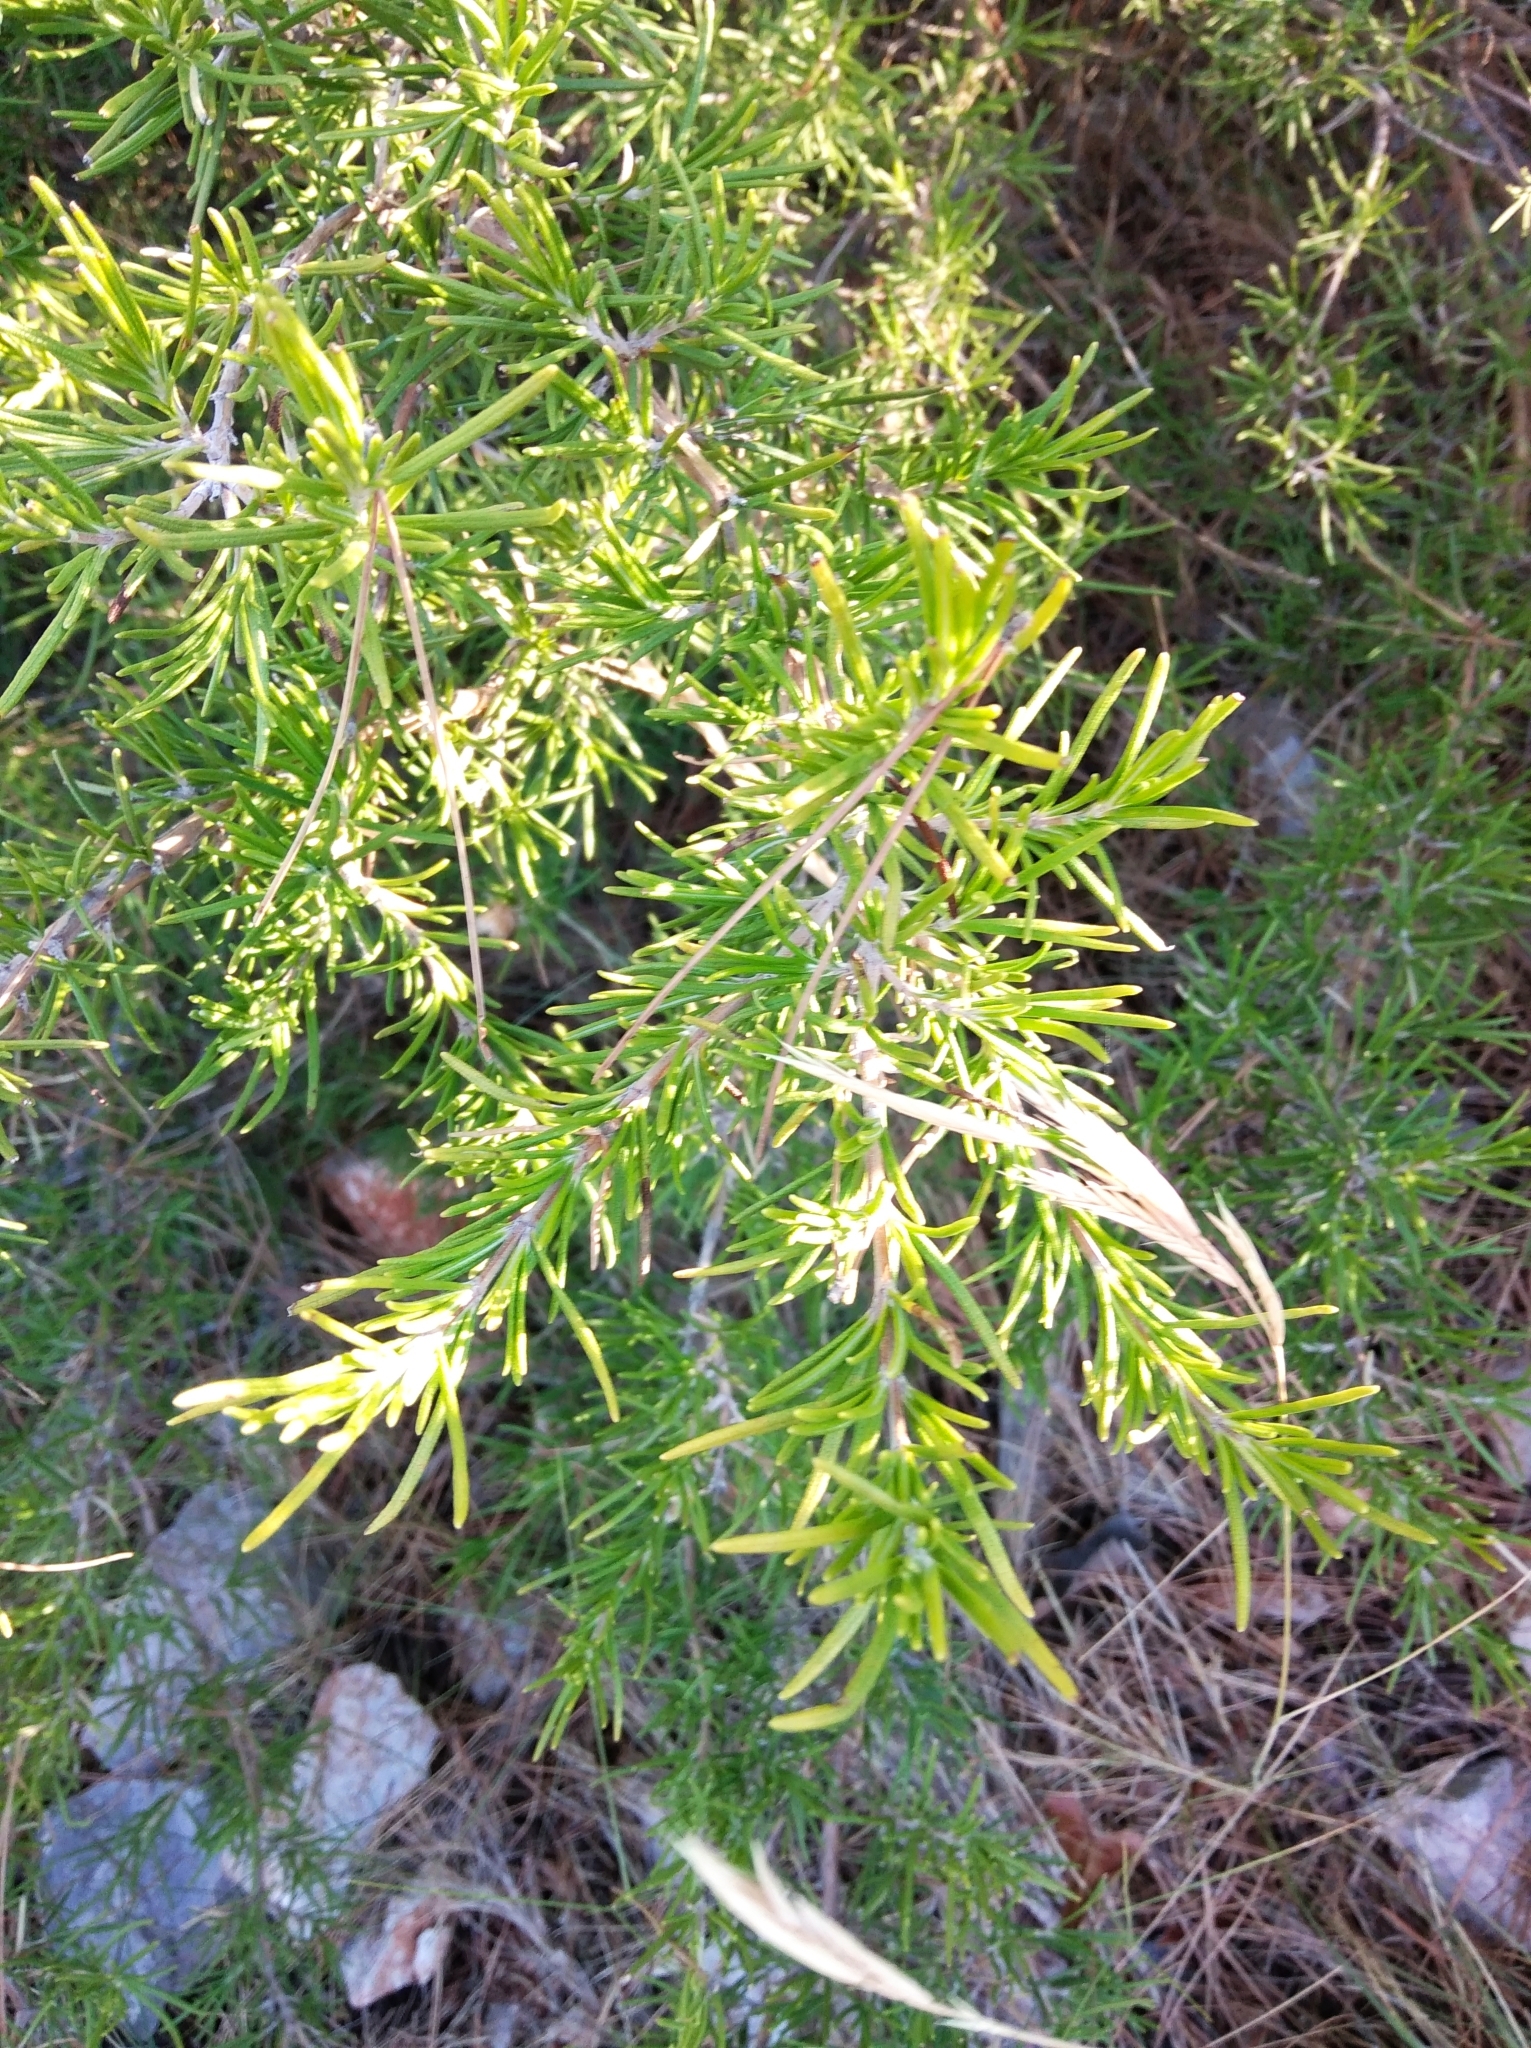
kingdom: Plantae
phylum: Tracheophyta
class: Magnoliopsida
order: Lamiales
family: Lamiaceae
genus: Salvia
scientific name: Salvia rosmarinus
